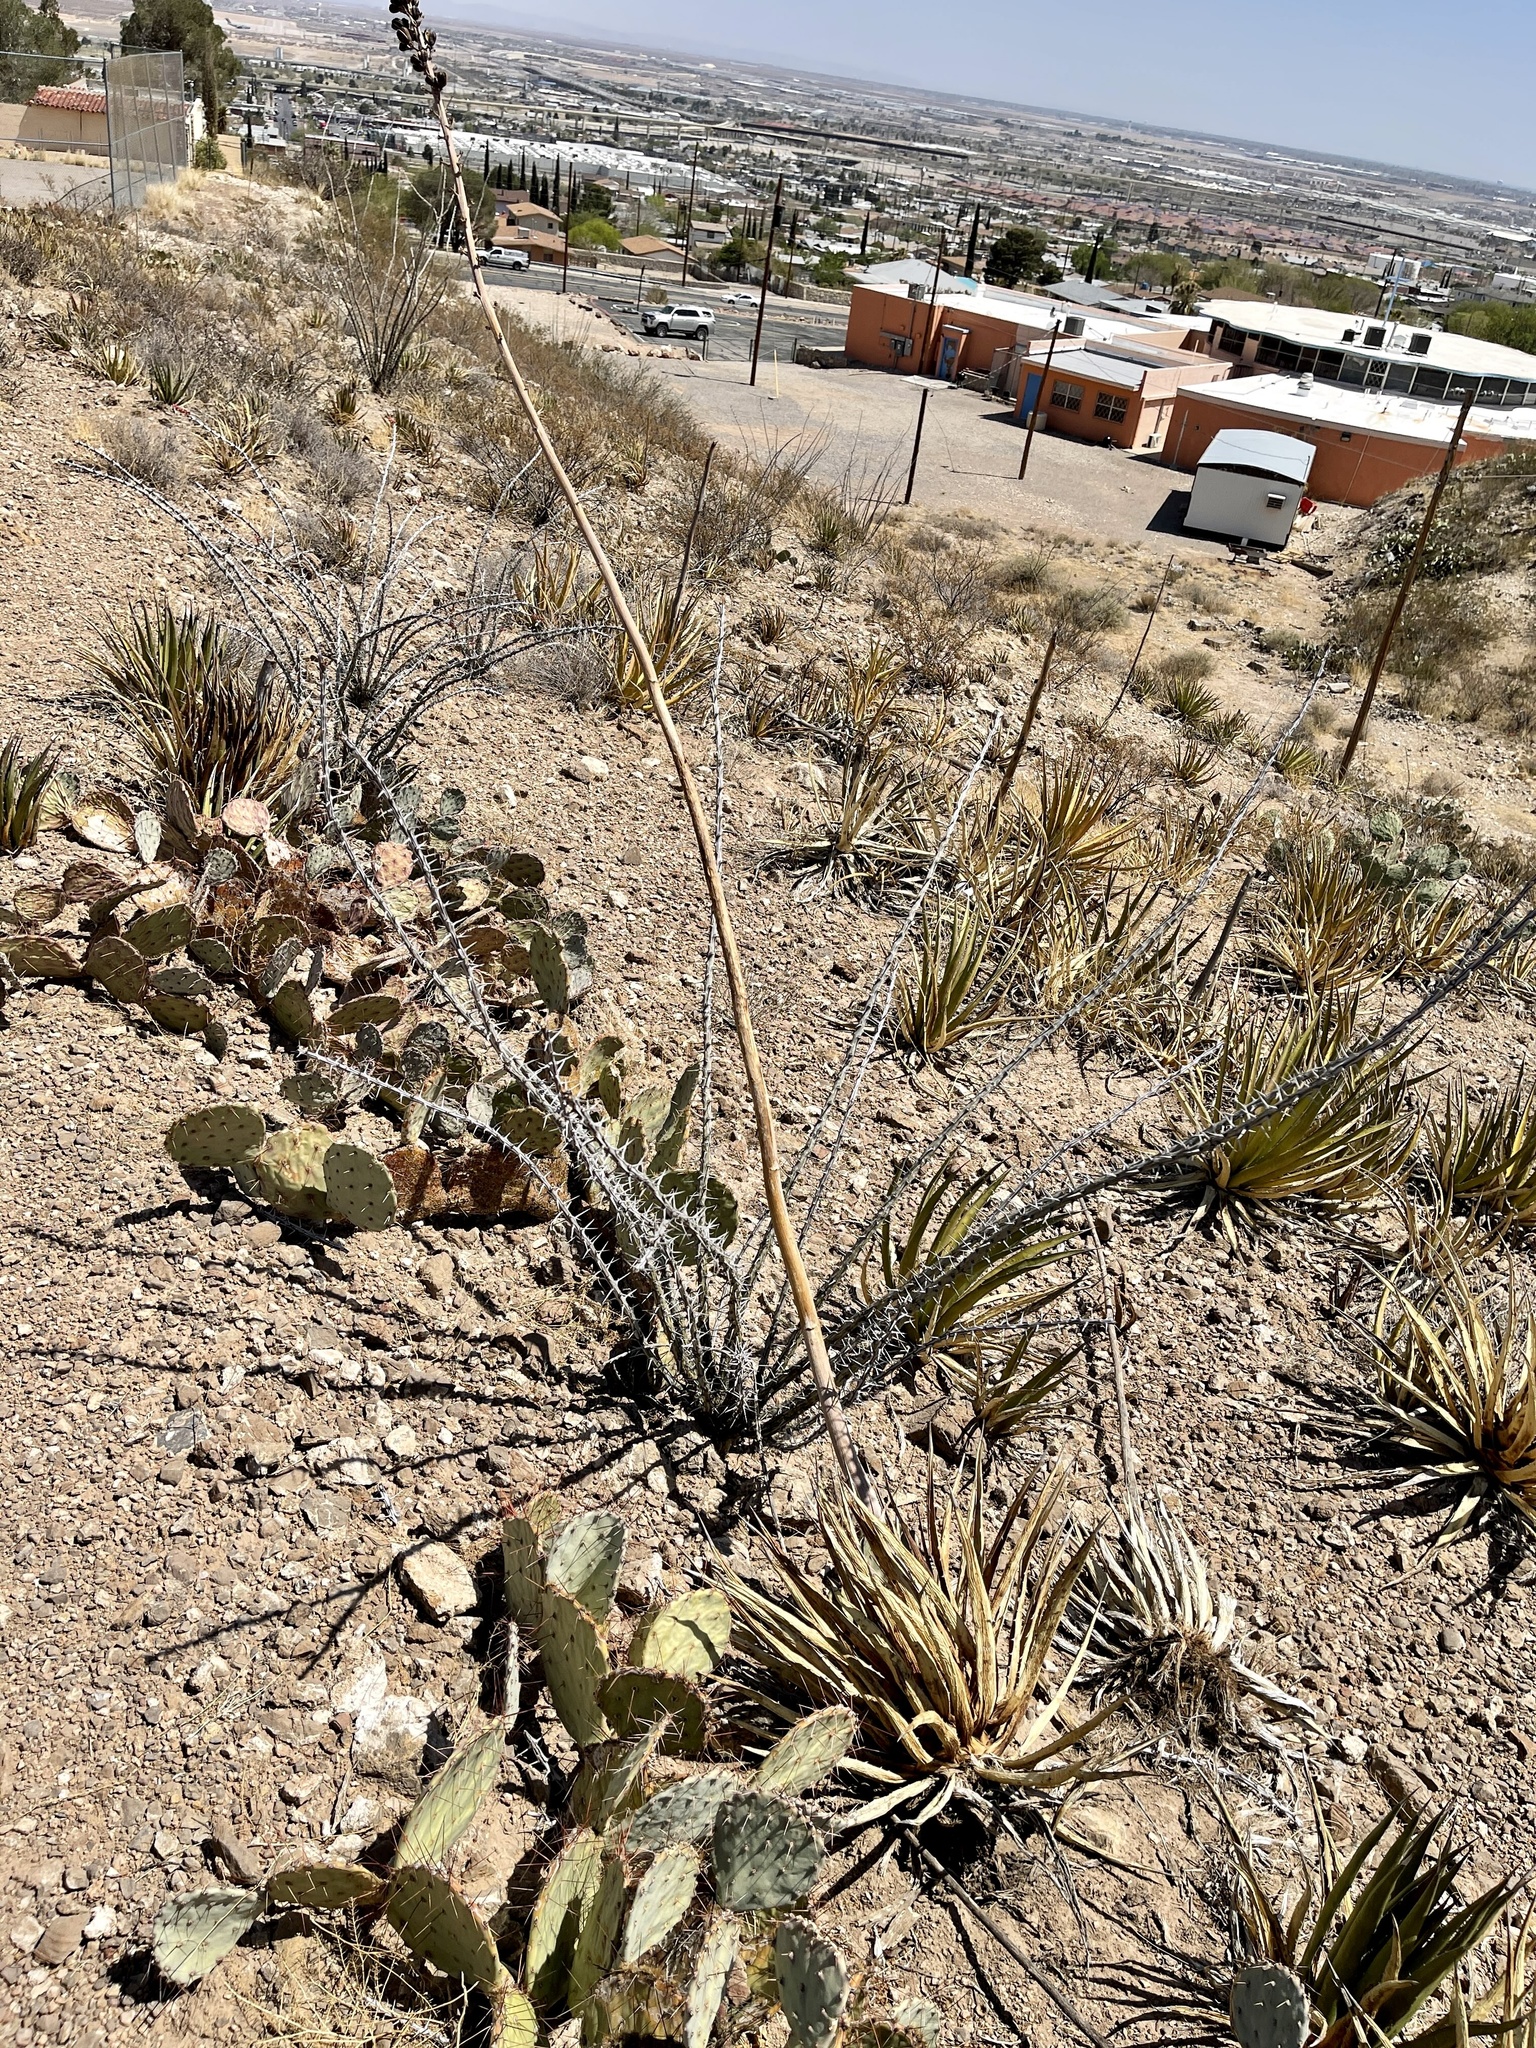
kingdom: Plantae
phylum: Tracheophyta
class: Liliopsida
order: Asparagales
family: Asparagaceae
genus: Agave
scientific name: Agave lechuguilla
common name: Lecheguilla agave
